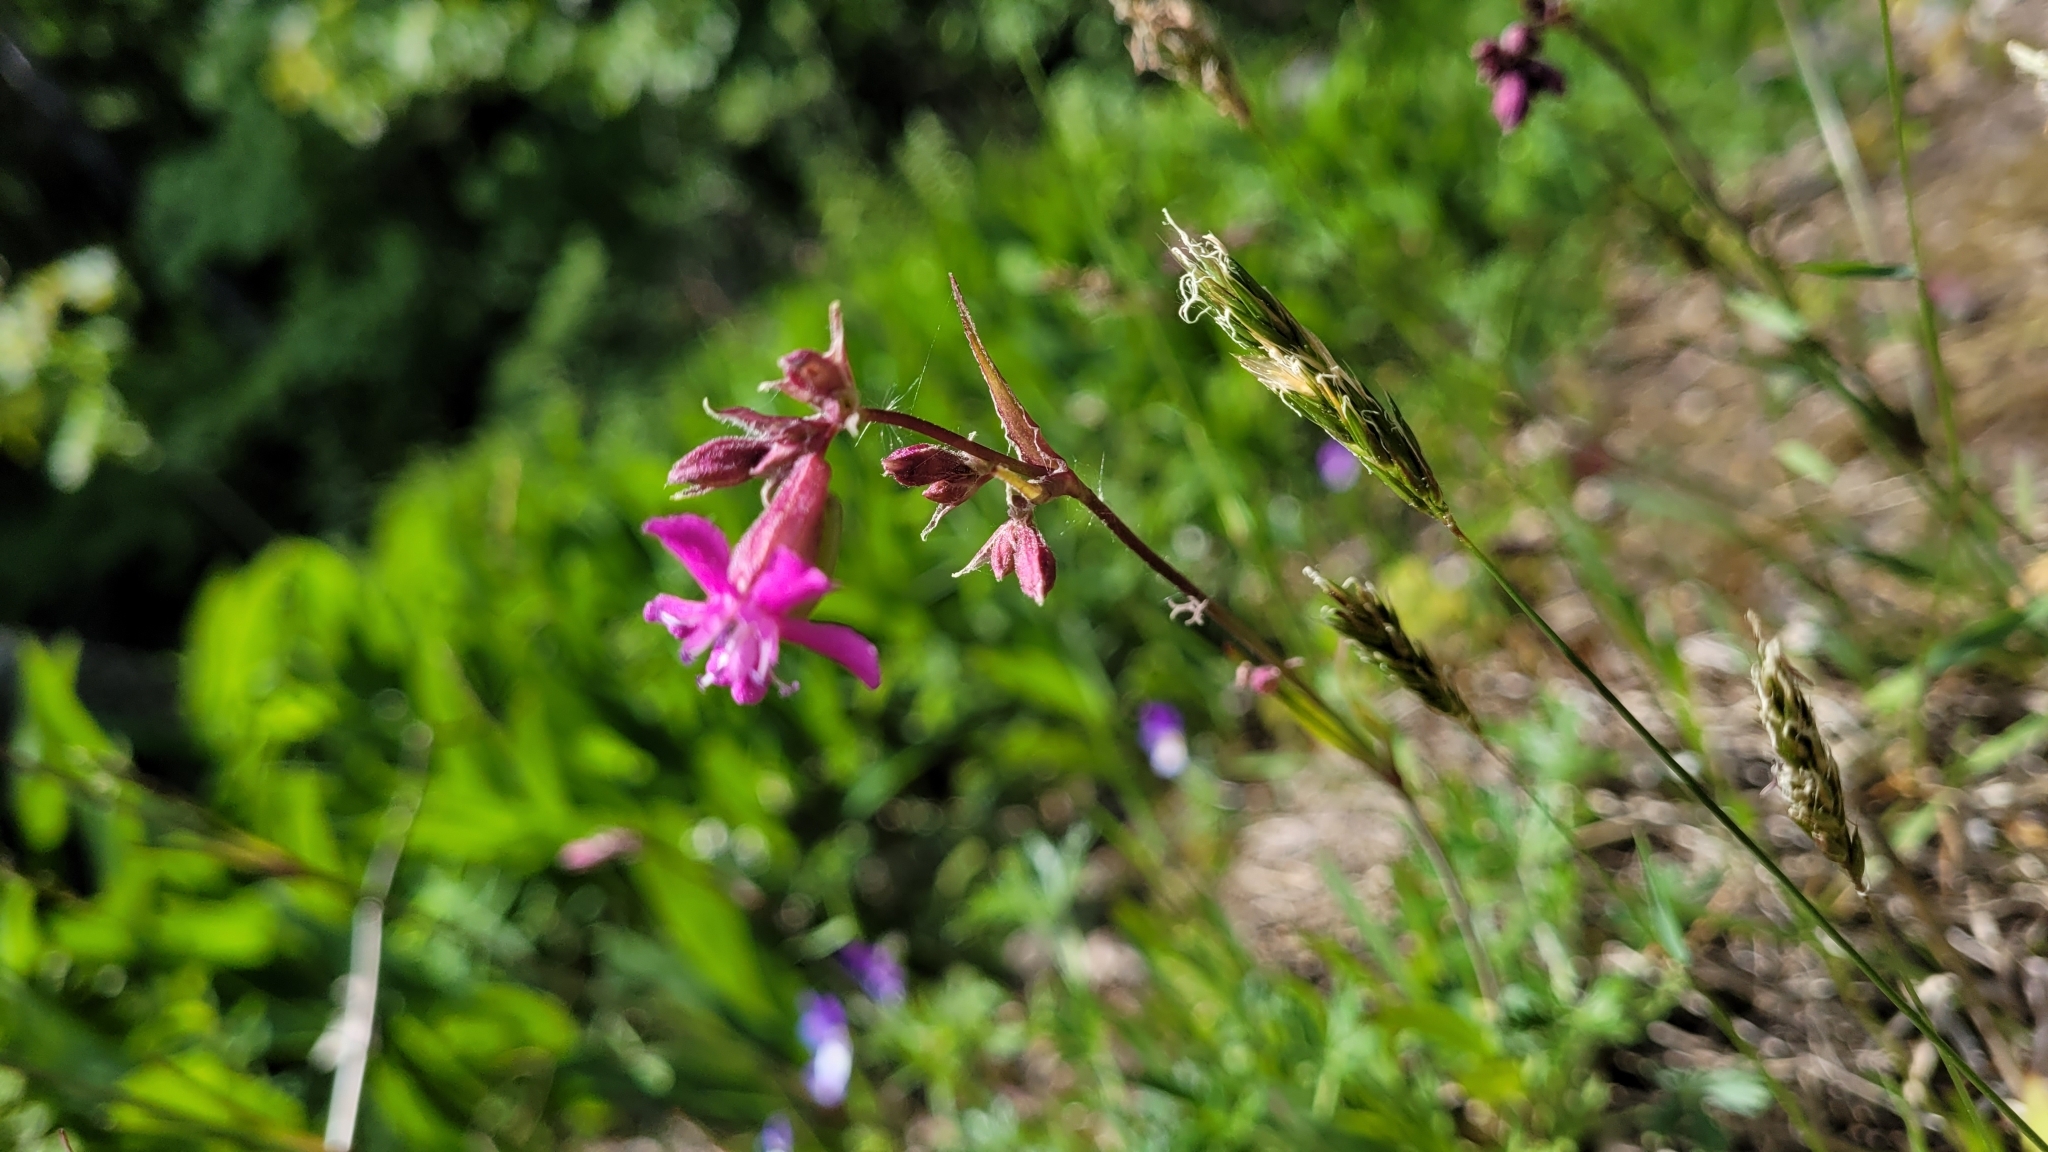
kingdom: Plantae
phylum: Tracheophyta
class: Magnoliopsida
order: Caryophyllales
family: Caryophyllaceae
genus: Viscaria
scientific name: Viscaria vulgaris
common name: Clammy campion
